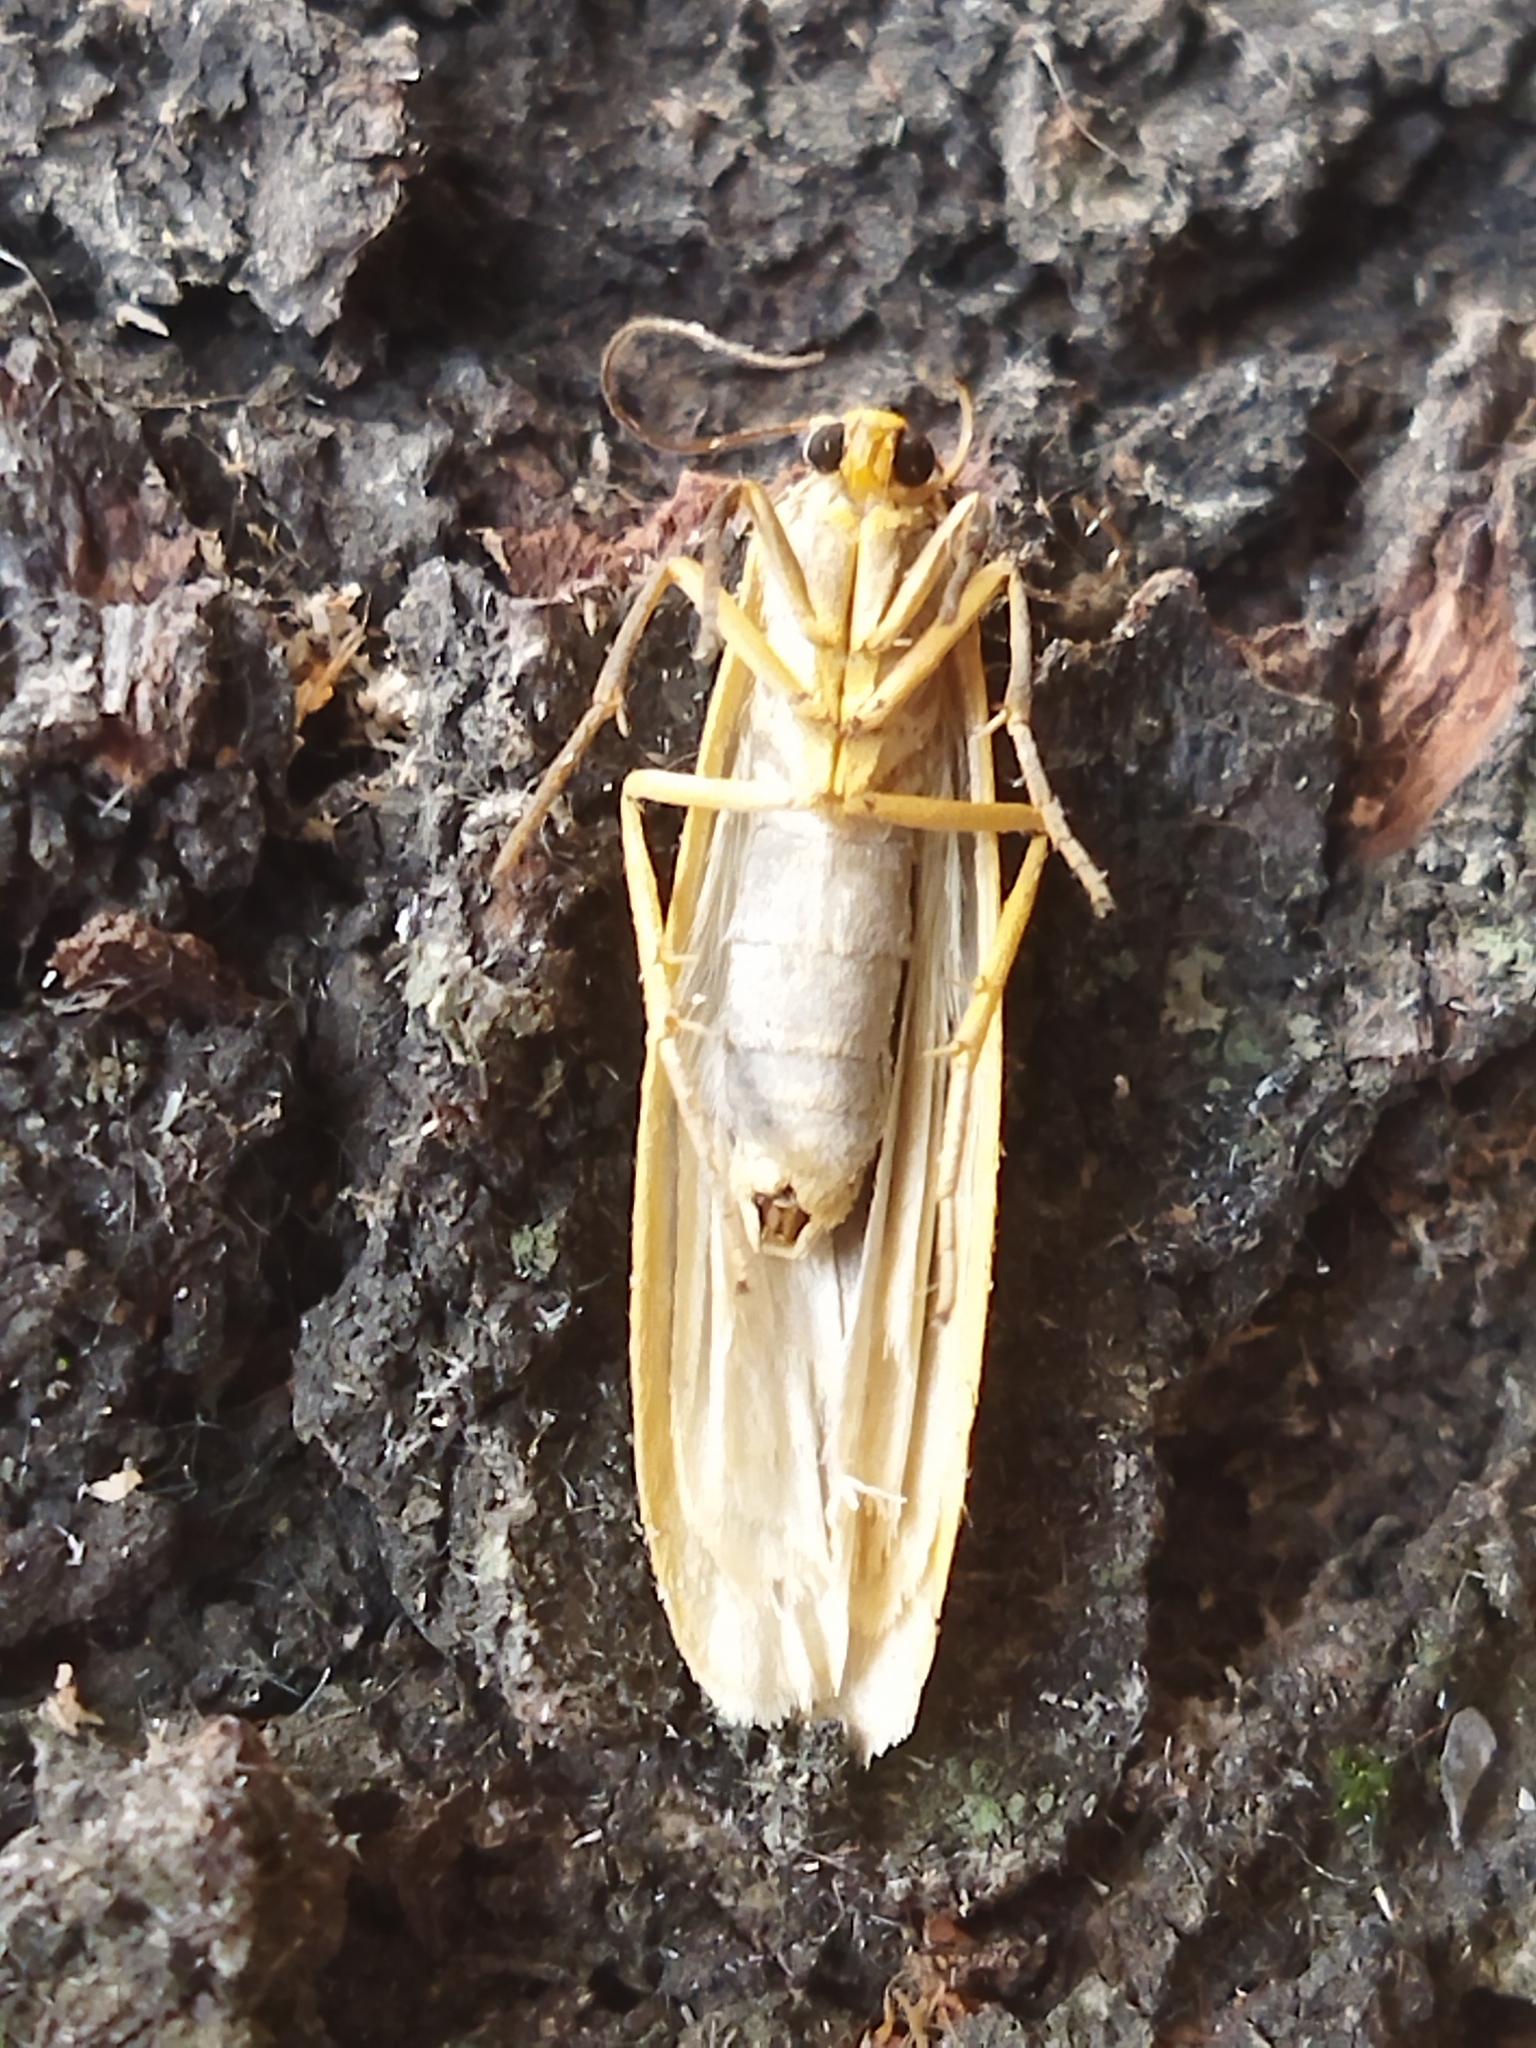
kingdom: Animalia
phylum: Arthropoda
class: Insecta
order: Lepidoptera
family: Erebidae
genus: Eilema
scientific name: Eilema caniola
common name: Hoary footman
